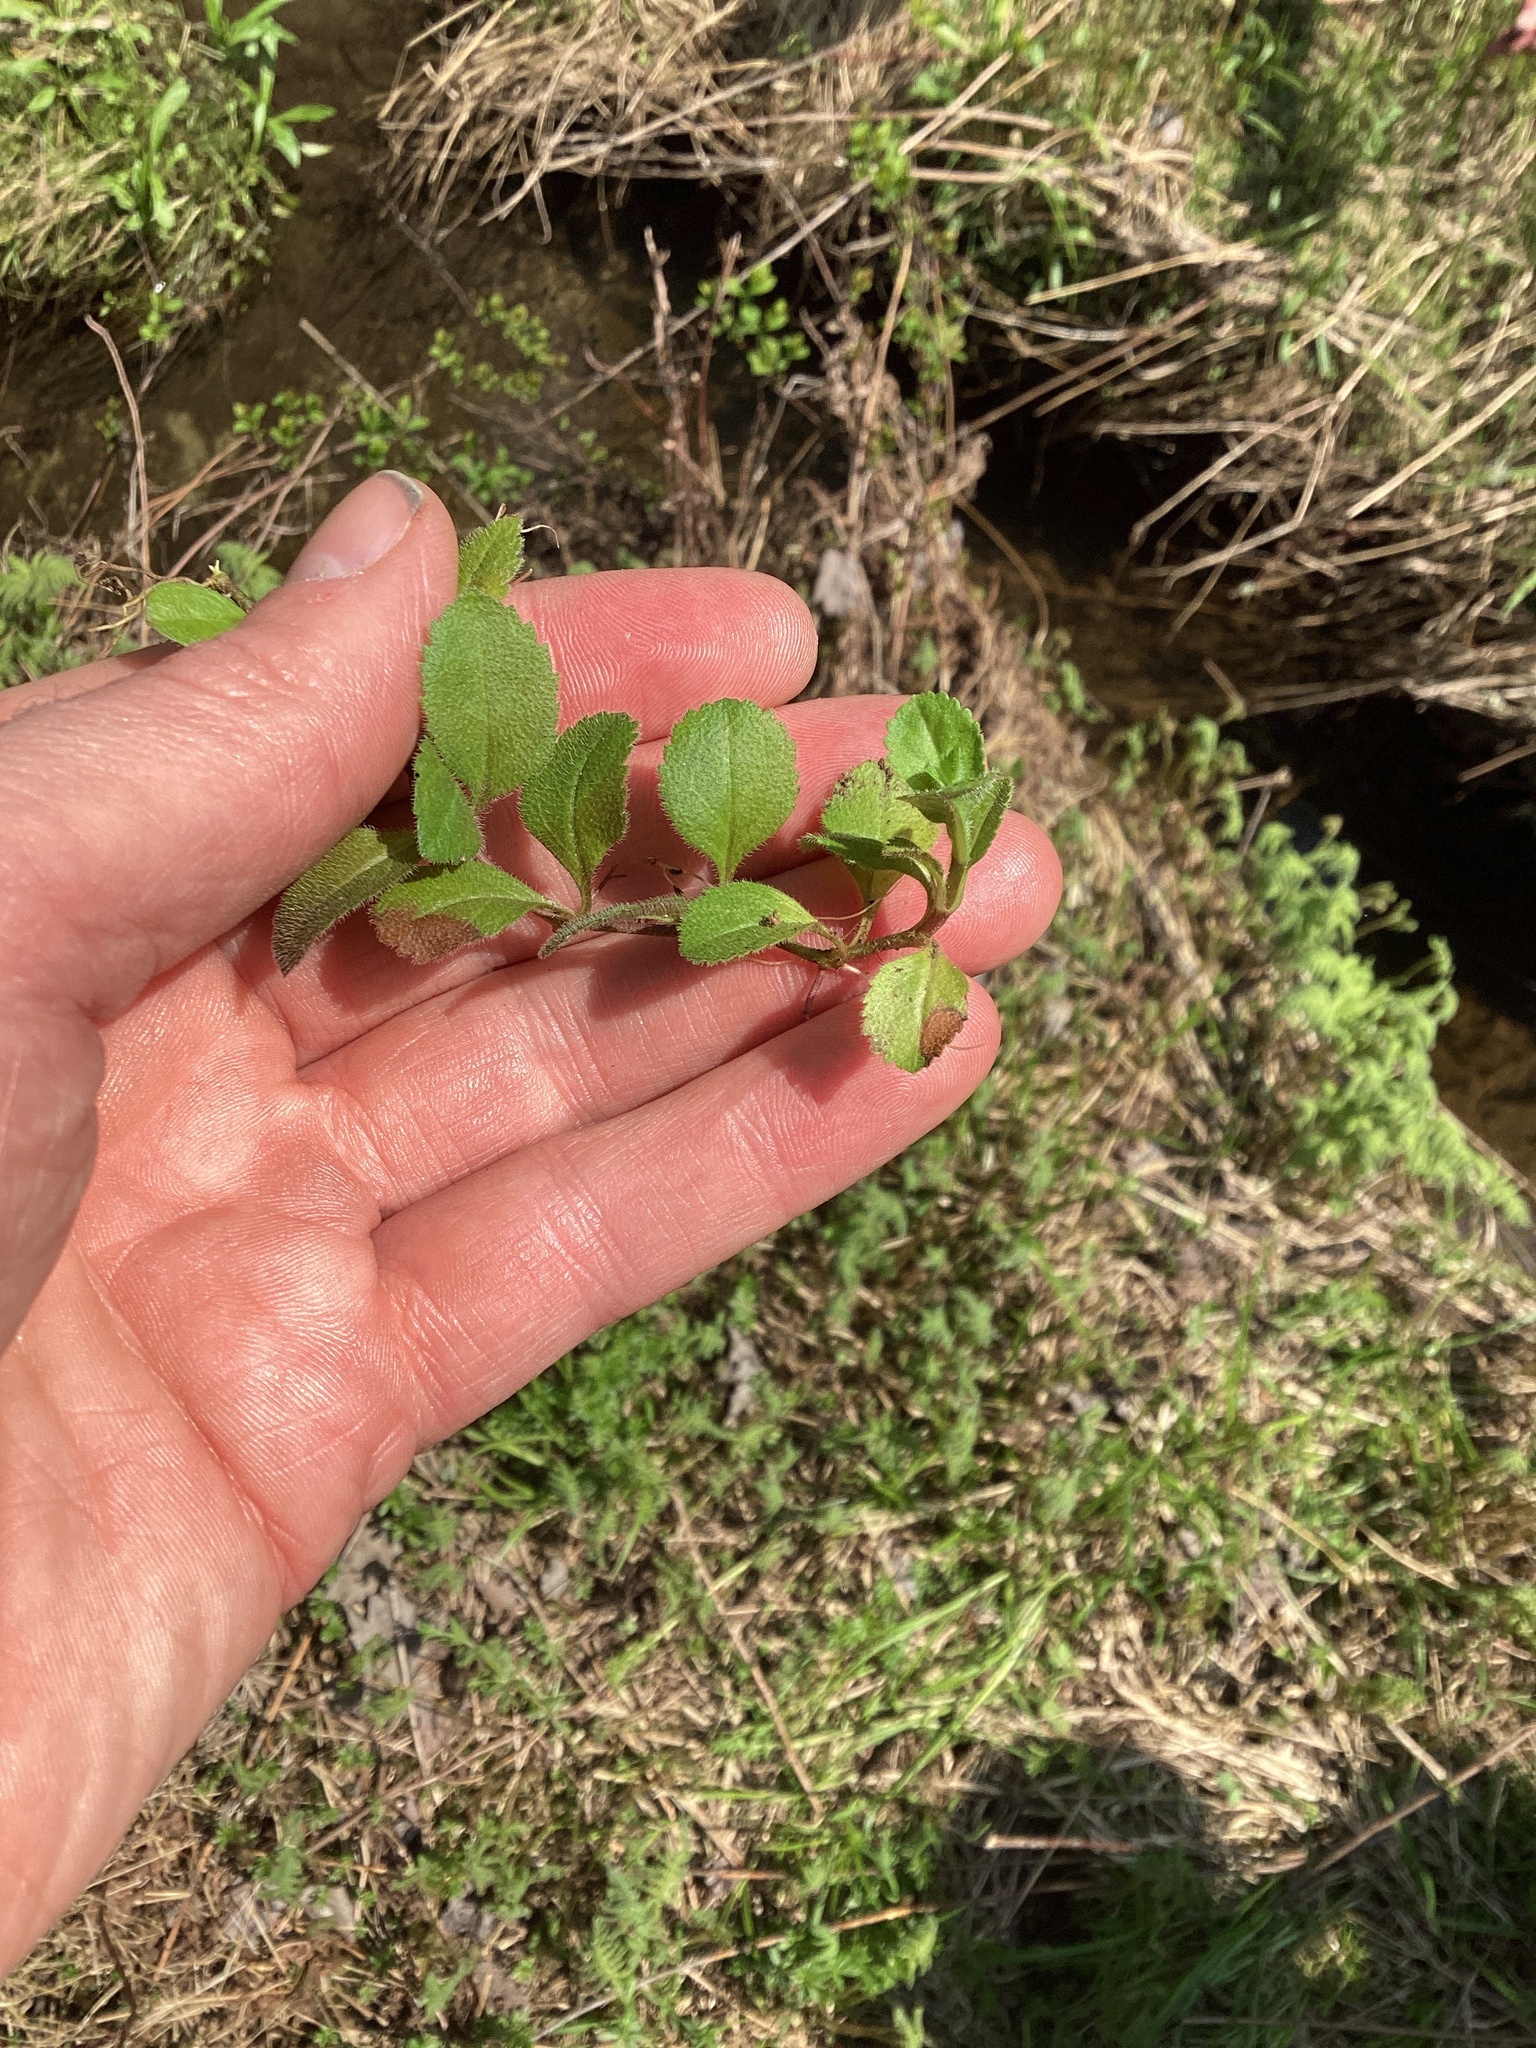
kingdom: Plantae
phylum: Tracheophyta
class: Magnoliopsida
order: Lamiales
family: Plantaginaceae
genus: Veronica
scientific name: Veronica officinalis
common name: Common speedwell
